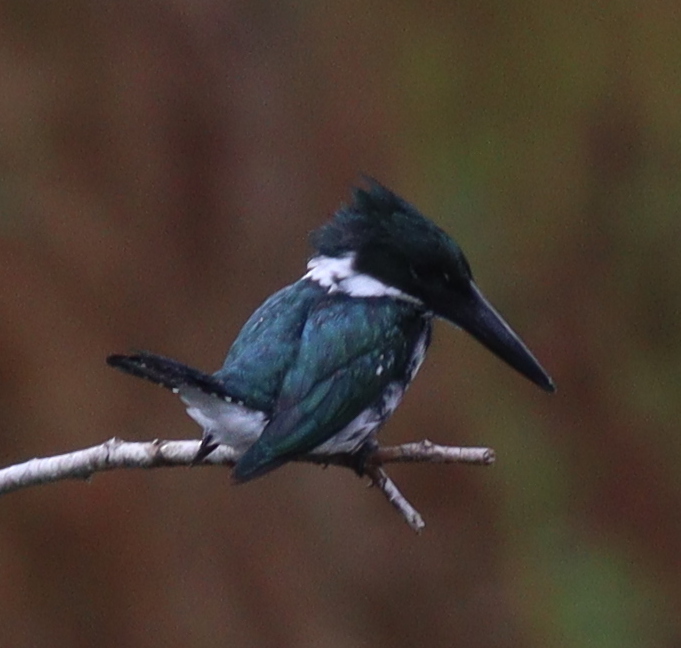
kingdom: Animalia
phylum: Chordata
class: Aves
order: Coraciiformes
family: Alcedinidae
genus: Chloroceryle
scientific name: Chloroceryle amazona
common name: Amazon kingfisher
